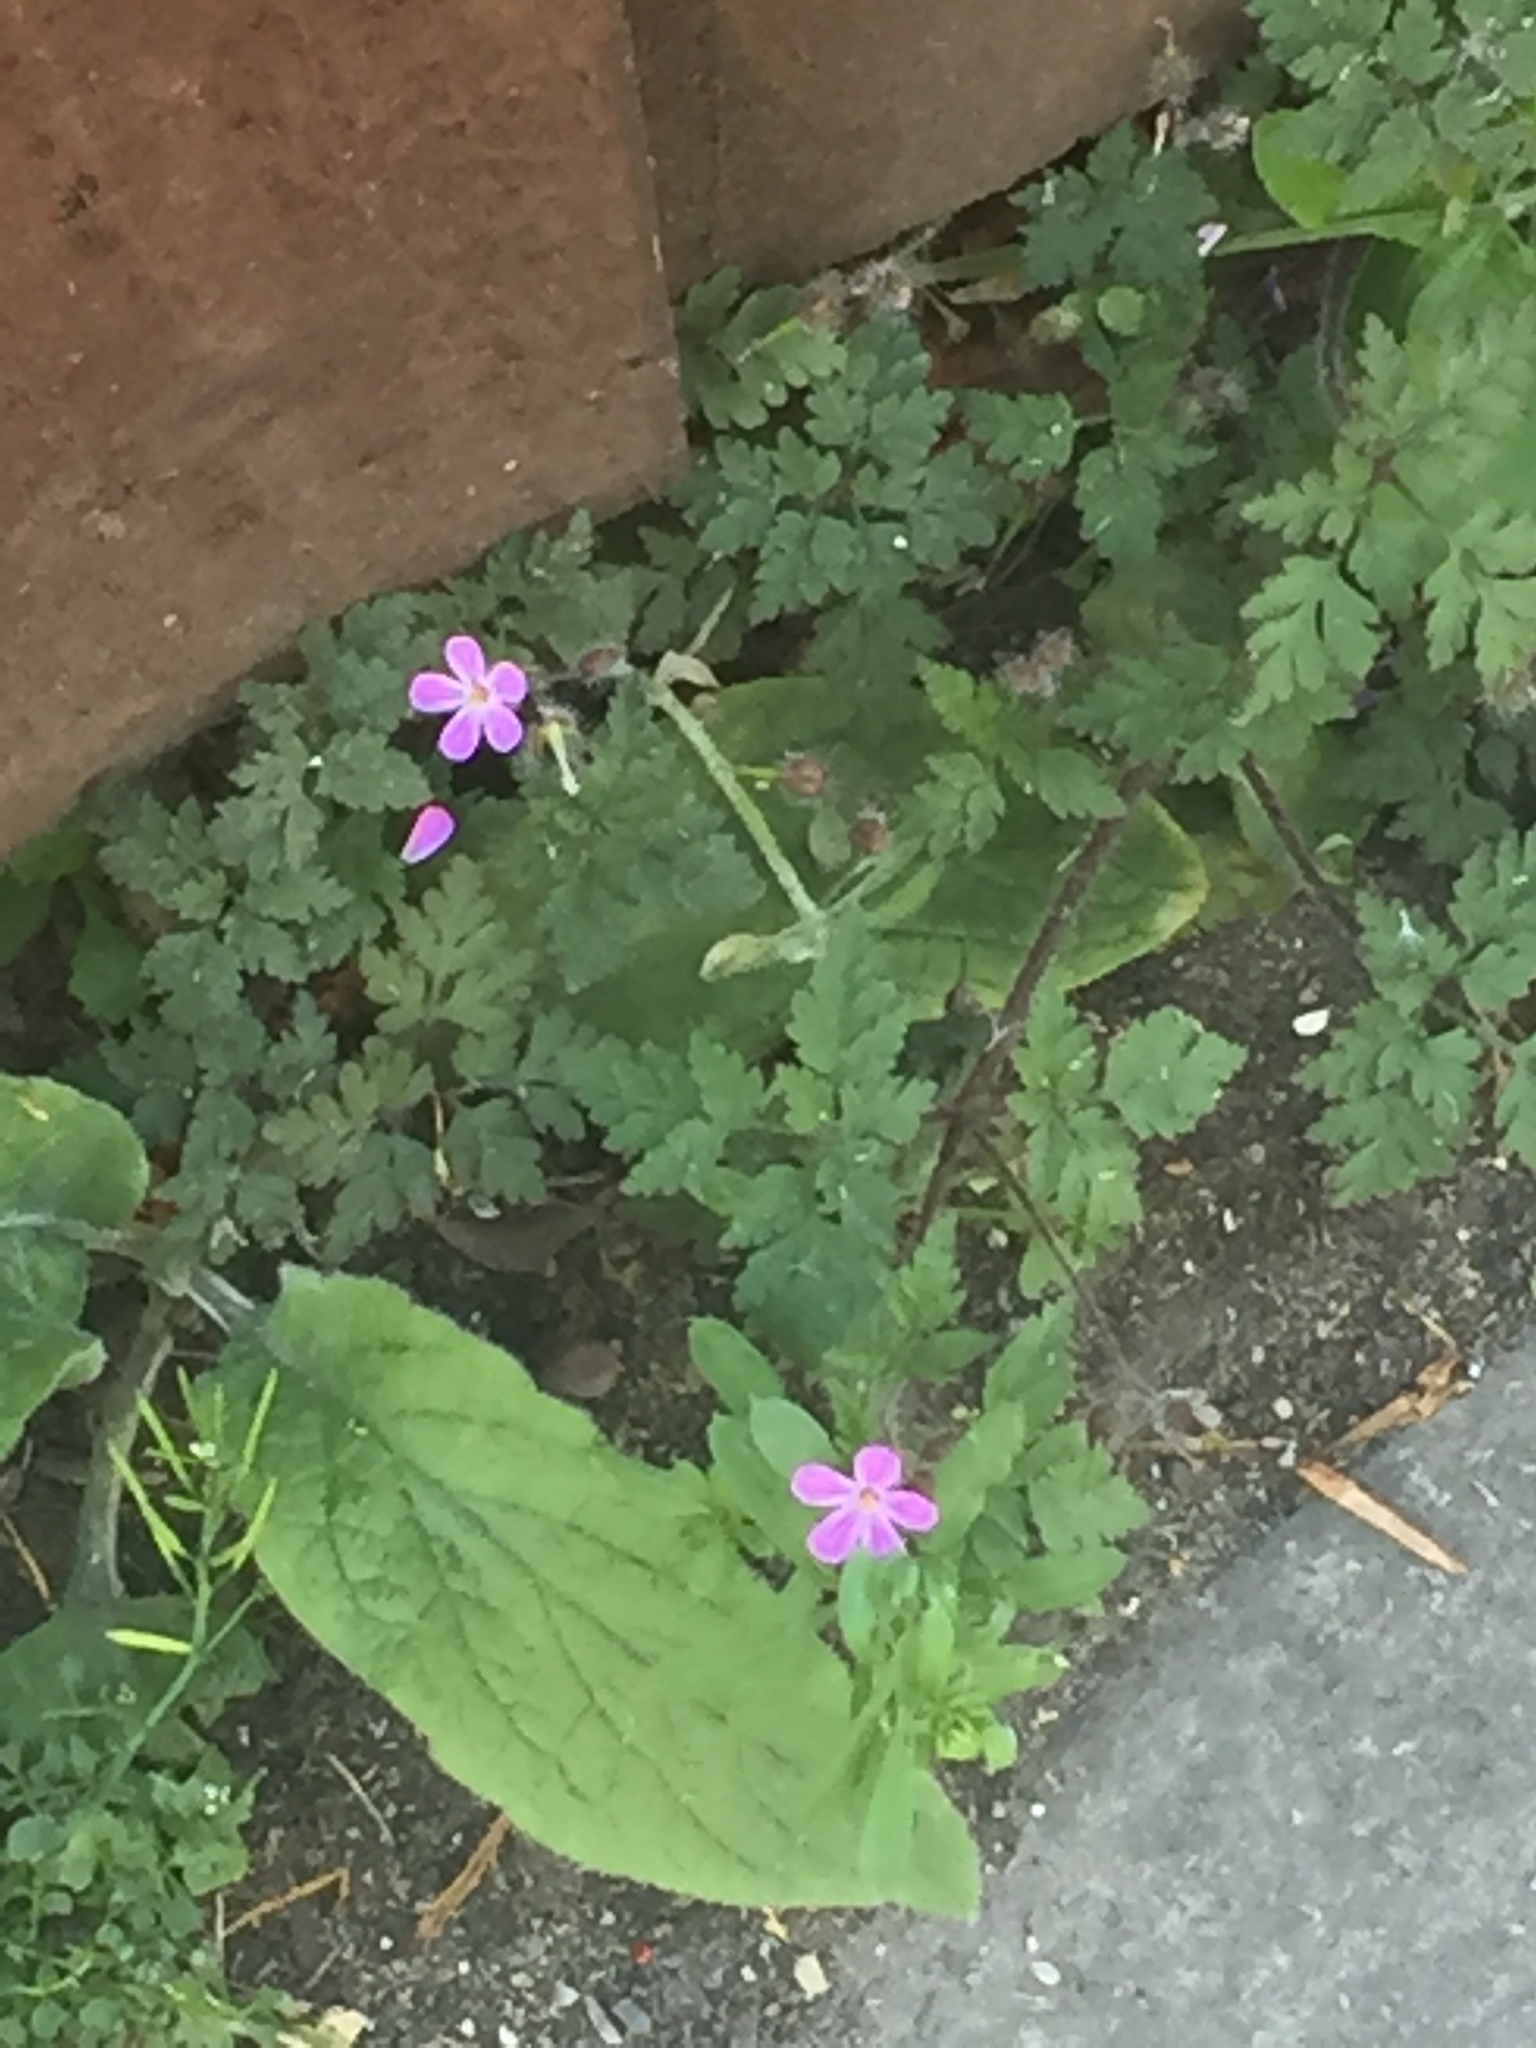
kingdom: Plantae
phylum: Tracheophyta
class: Magnoliopsida
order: Geraniales
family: Geraniaceae
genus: Geranium
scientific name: Geranium robertianum
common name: Herb-robert
